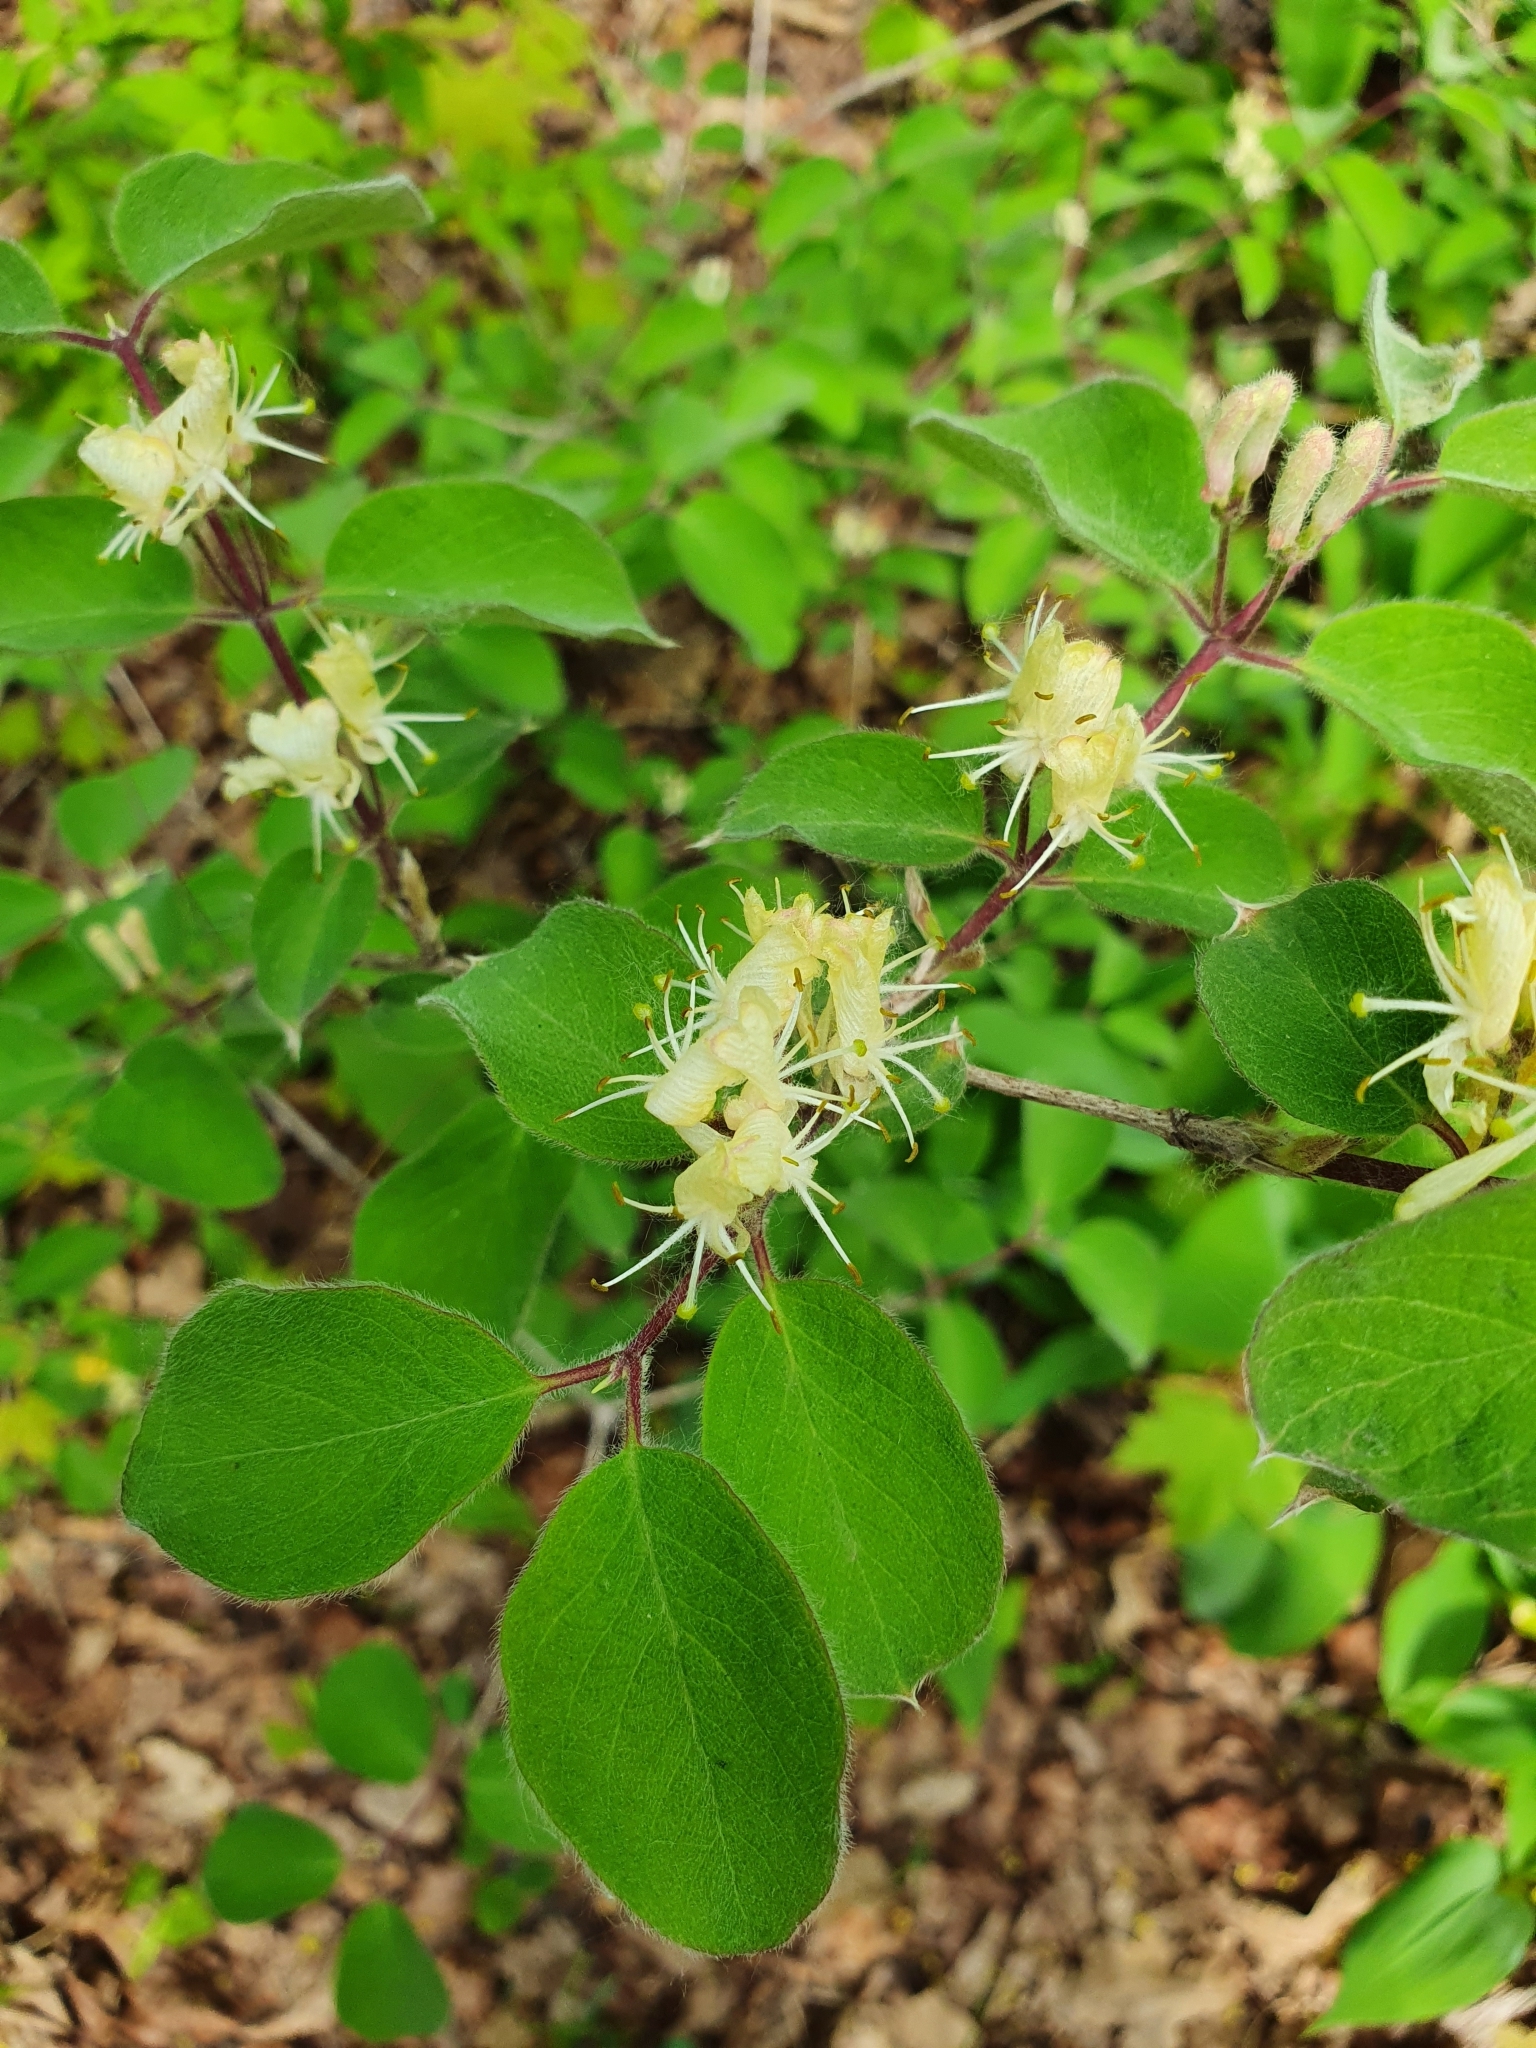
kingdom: Plantae
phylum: Tracheophyta
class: Magnoliopsida
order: Dipsacales
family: Caprifoliaceae
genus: Lonicera
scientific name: Lonicera xylosteum
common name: Fly honeysuckle
